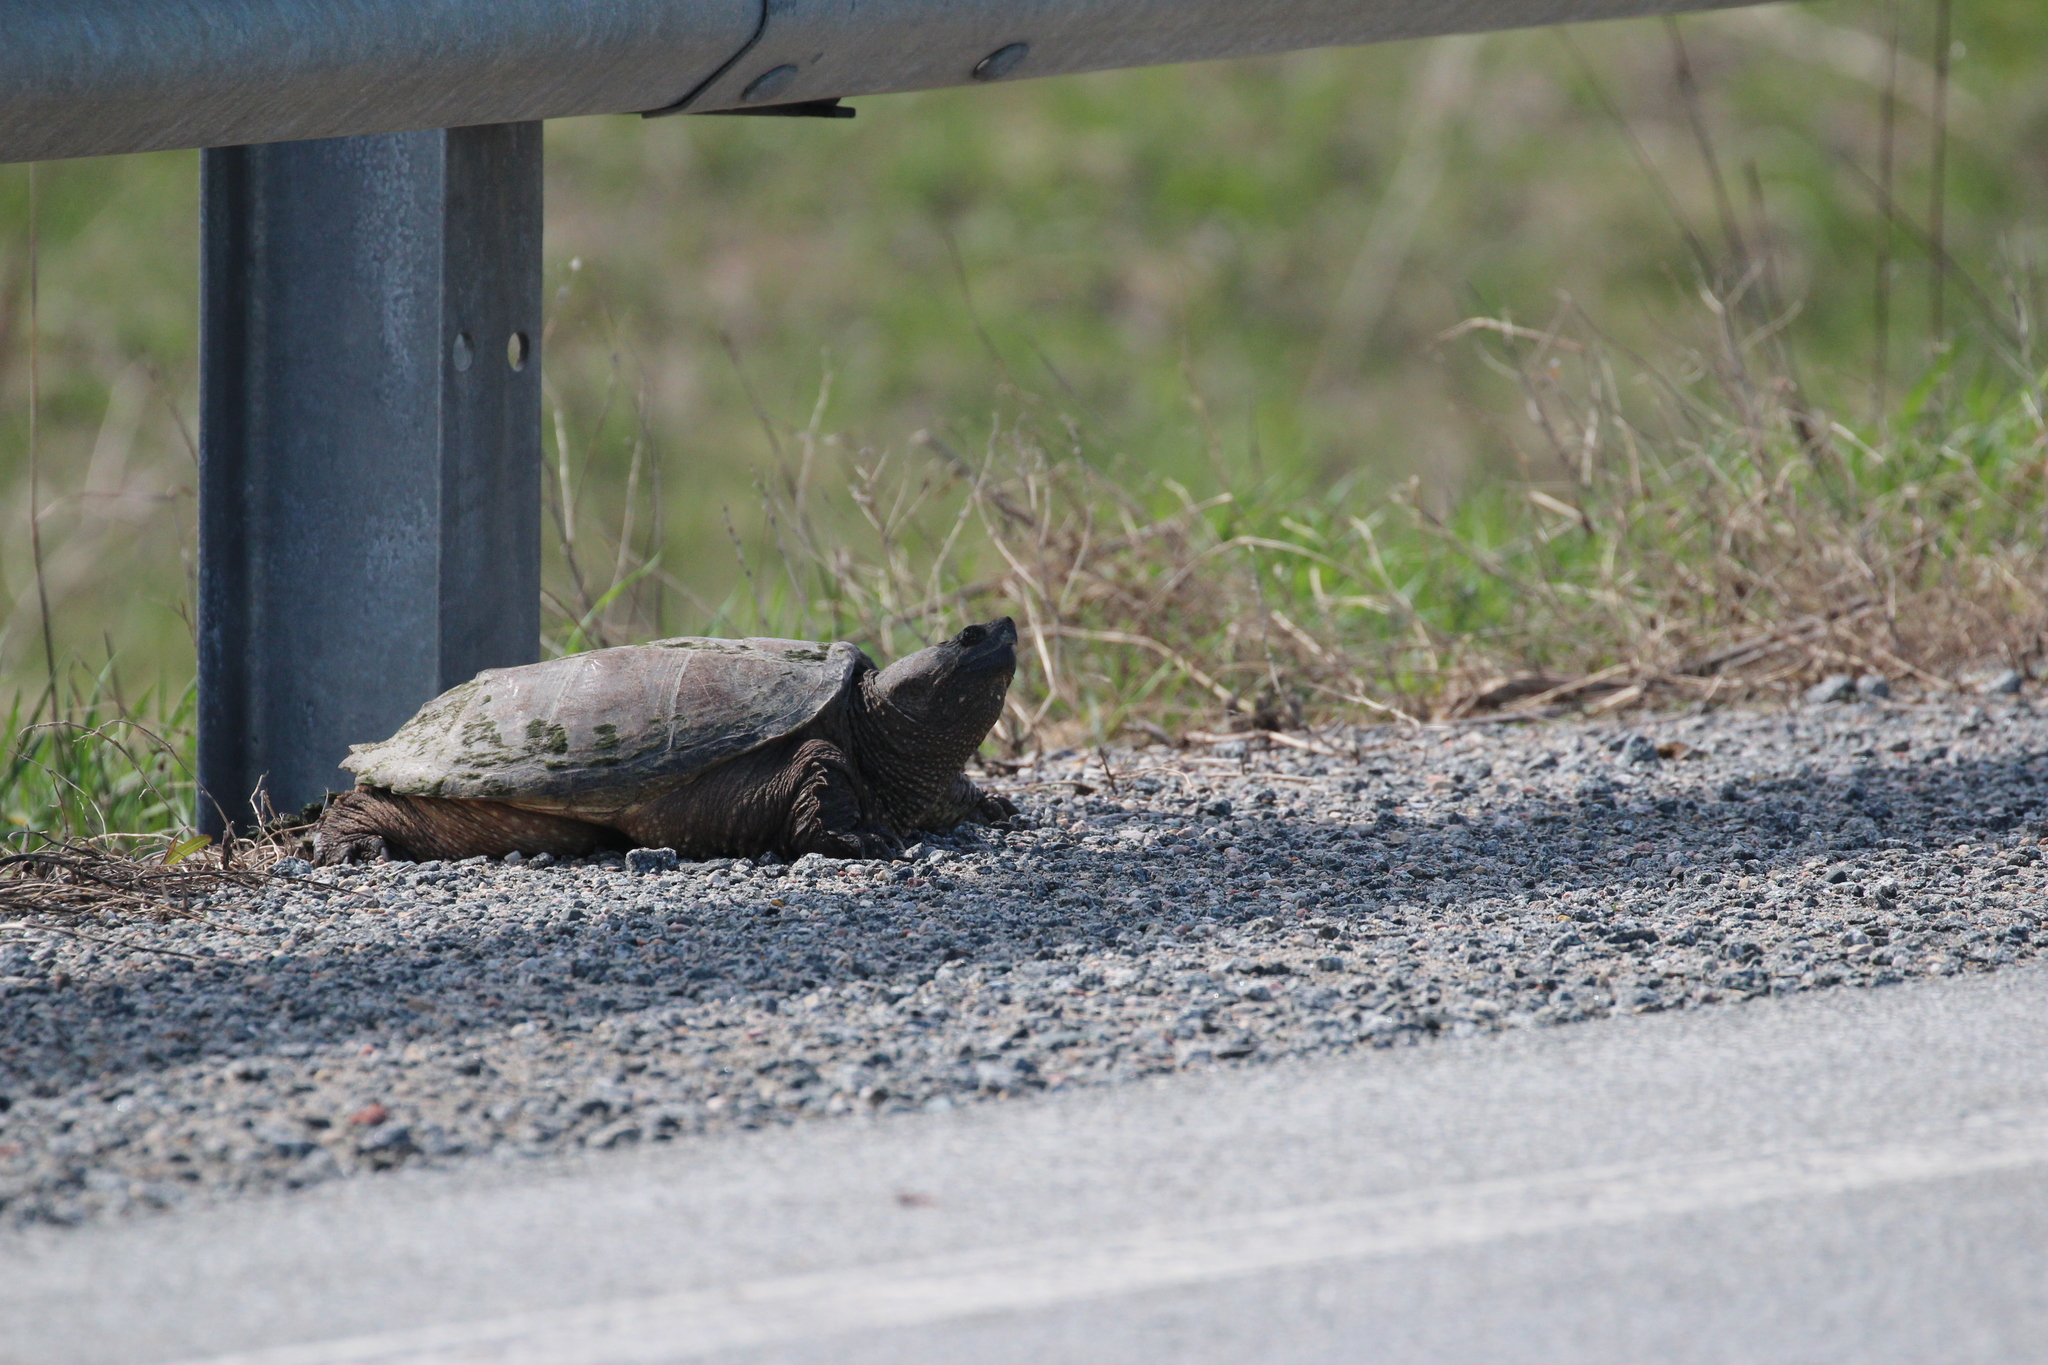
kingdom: Animalia
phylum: Chordata
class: Testudines
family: Chelydridae
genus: Chelydra
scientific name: Chelydra serpentina
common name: Common snapping turtle
